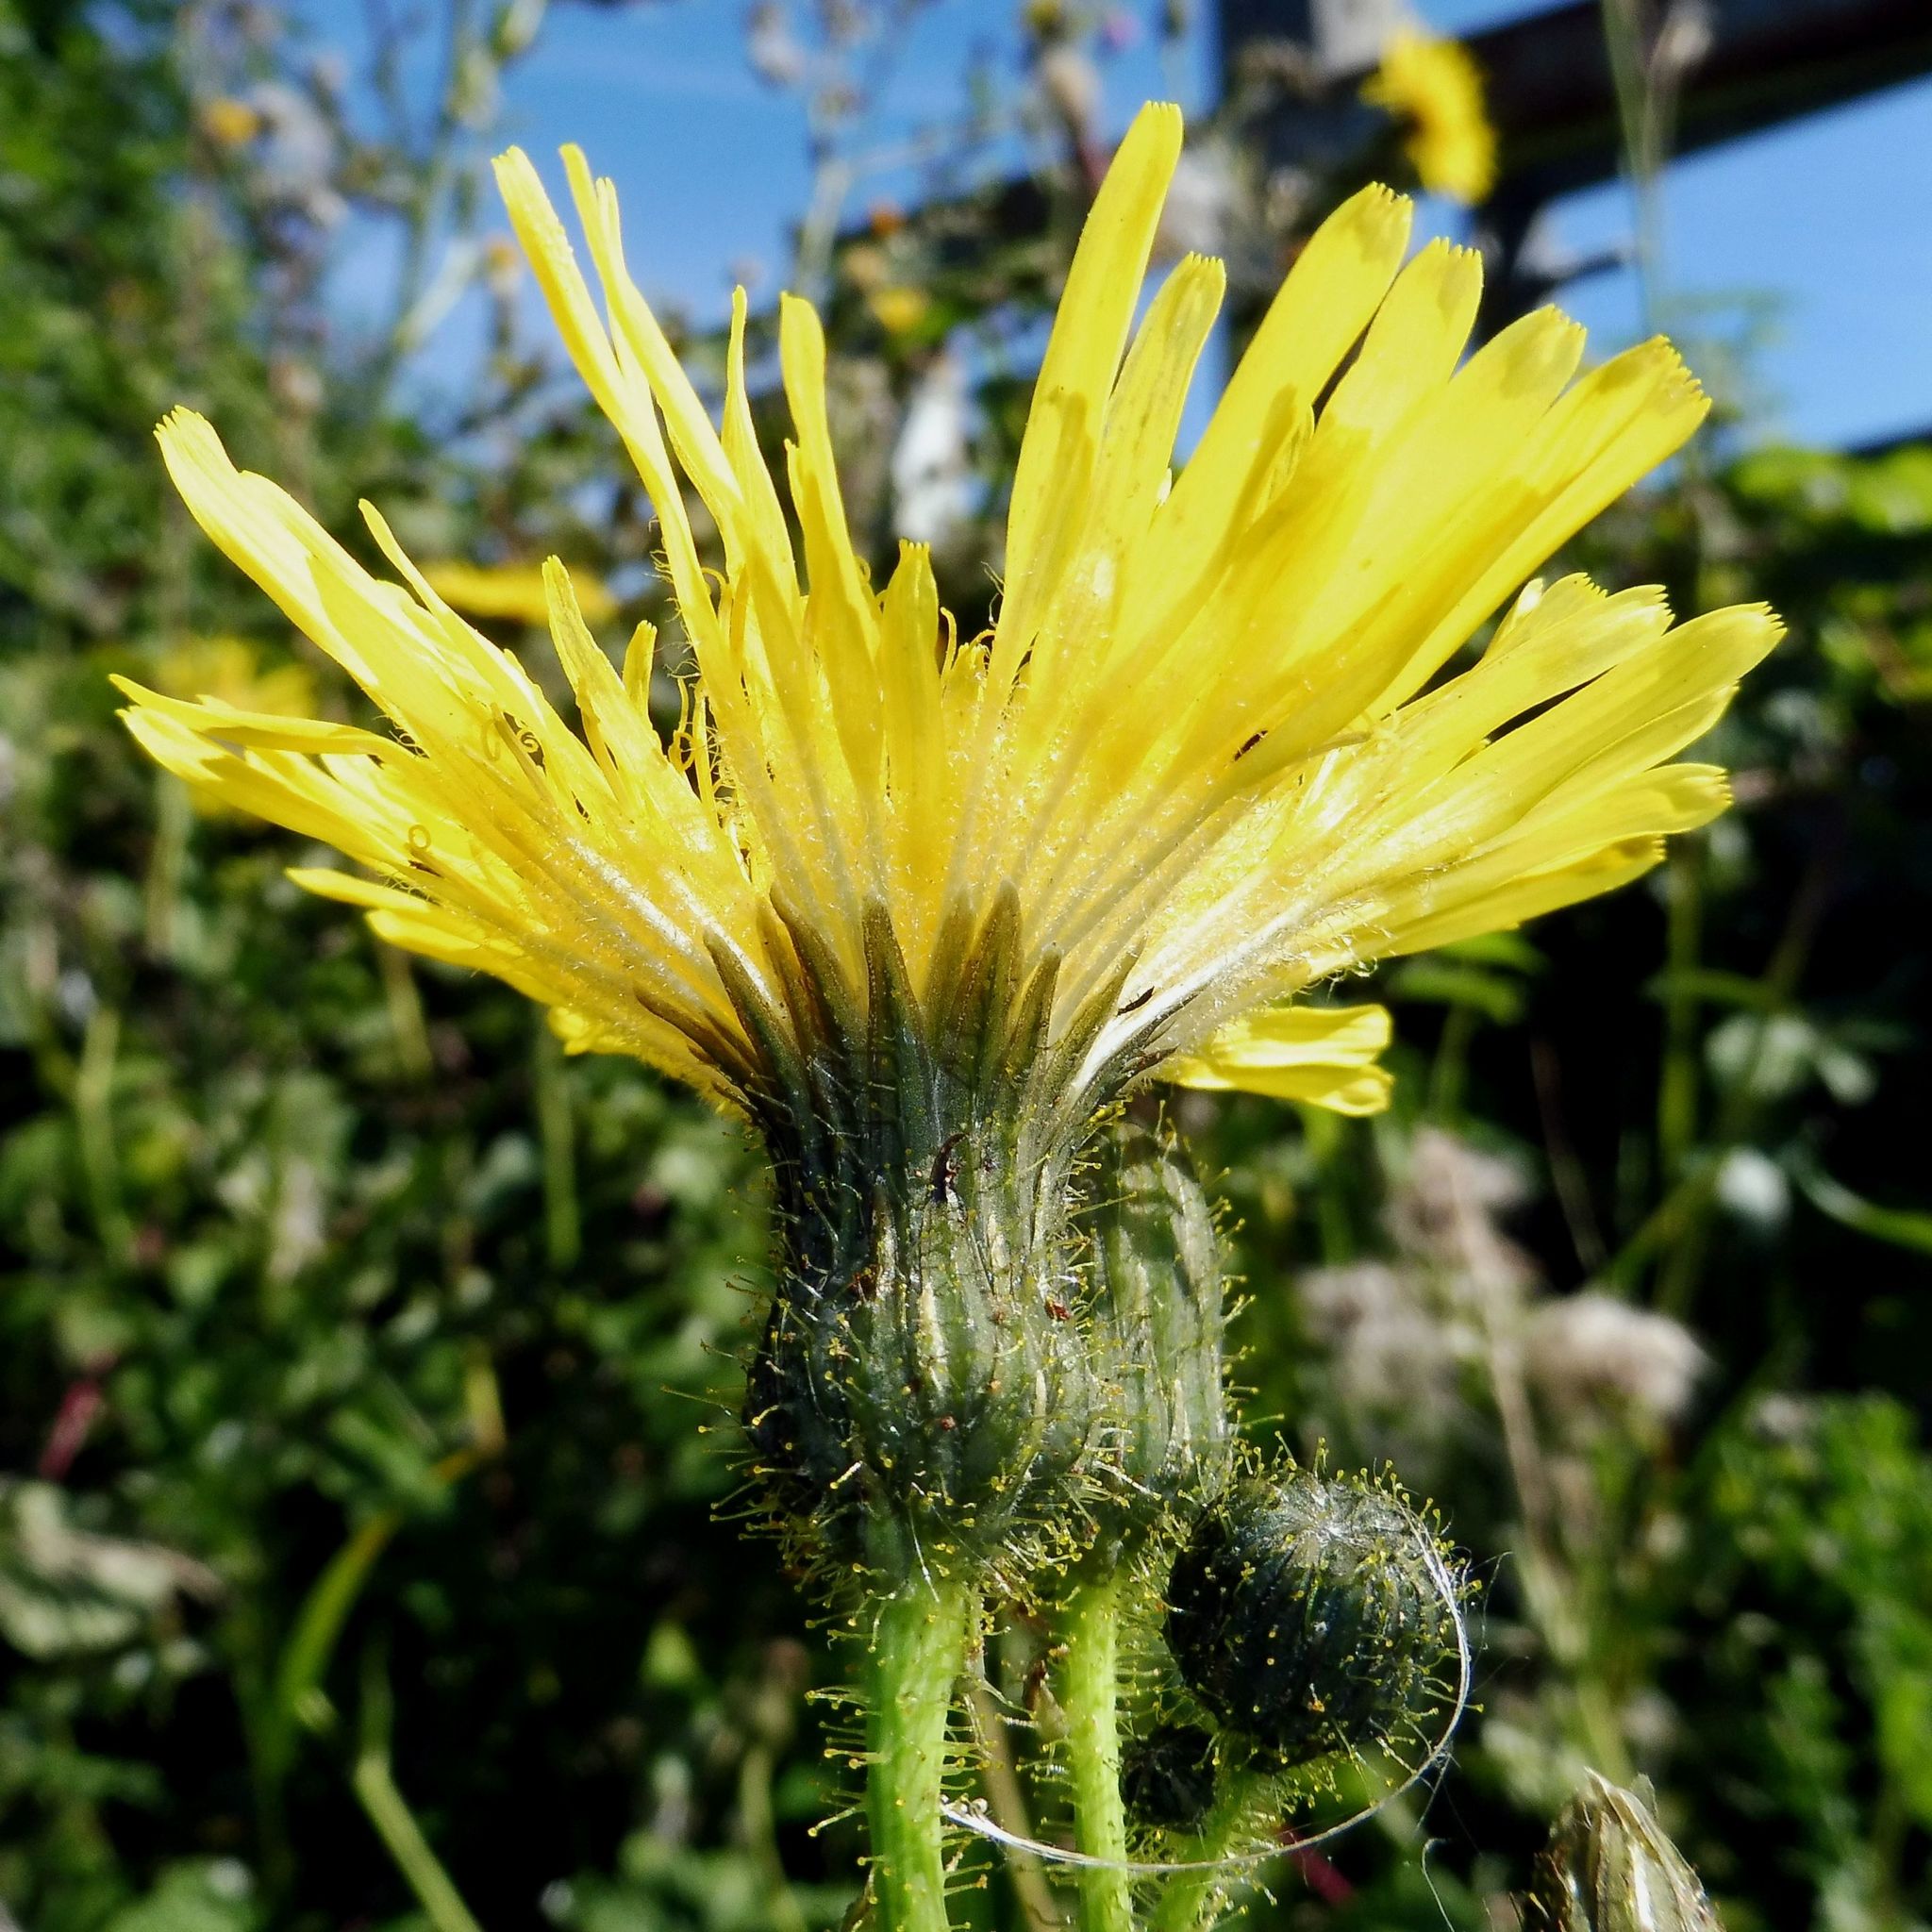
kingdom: Plantae
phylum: Tracheophyta
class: Magnoliopsida
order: Asterales
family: Asteraceae
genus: Sonchus
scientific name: Sonchus arvensis
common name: Perennial sow-thistle
